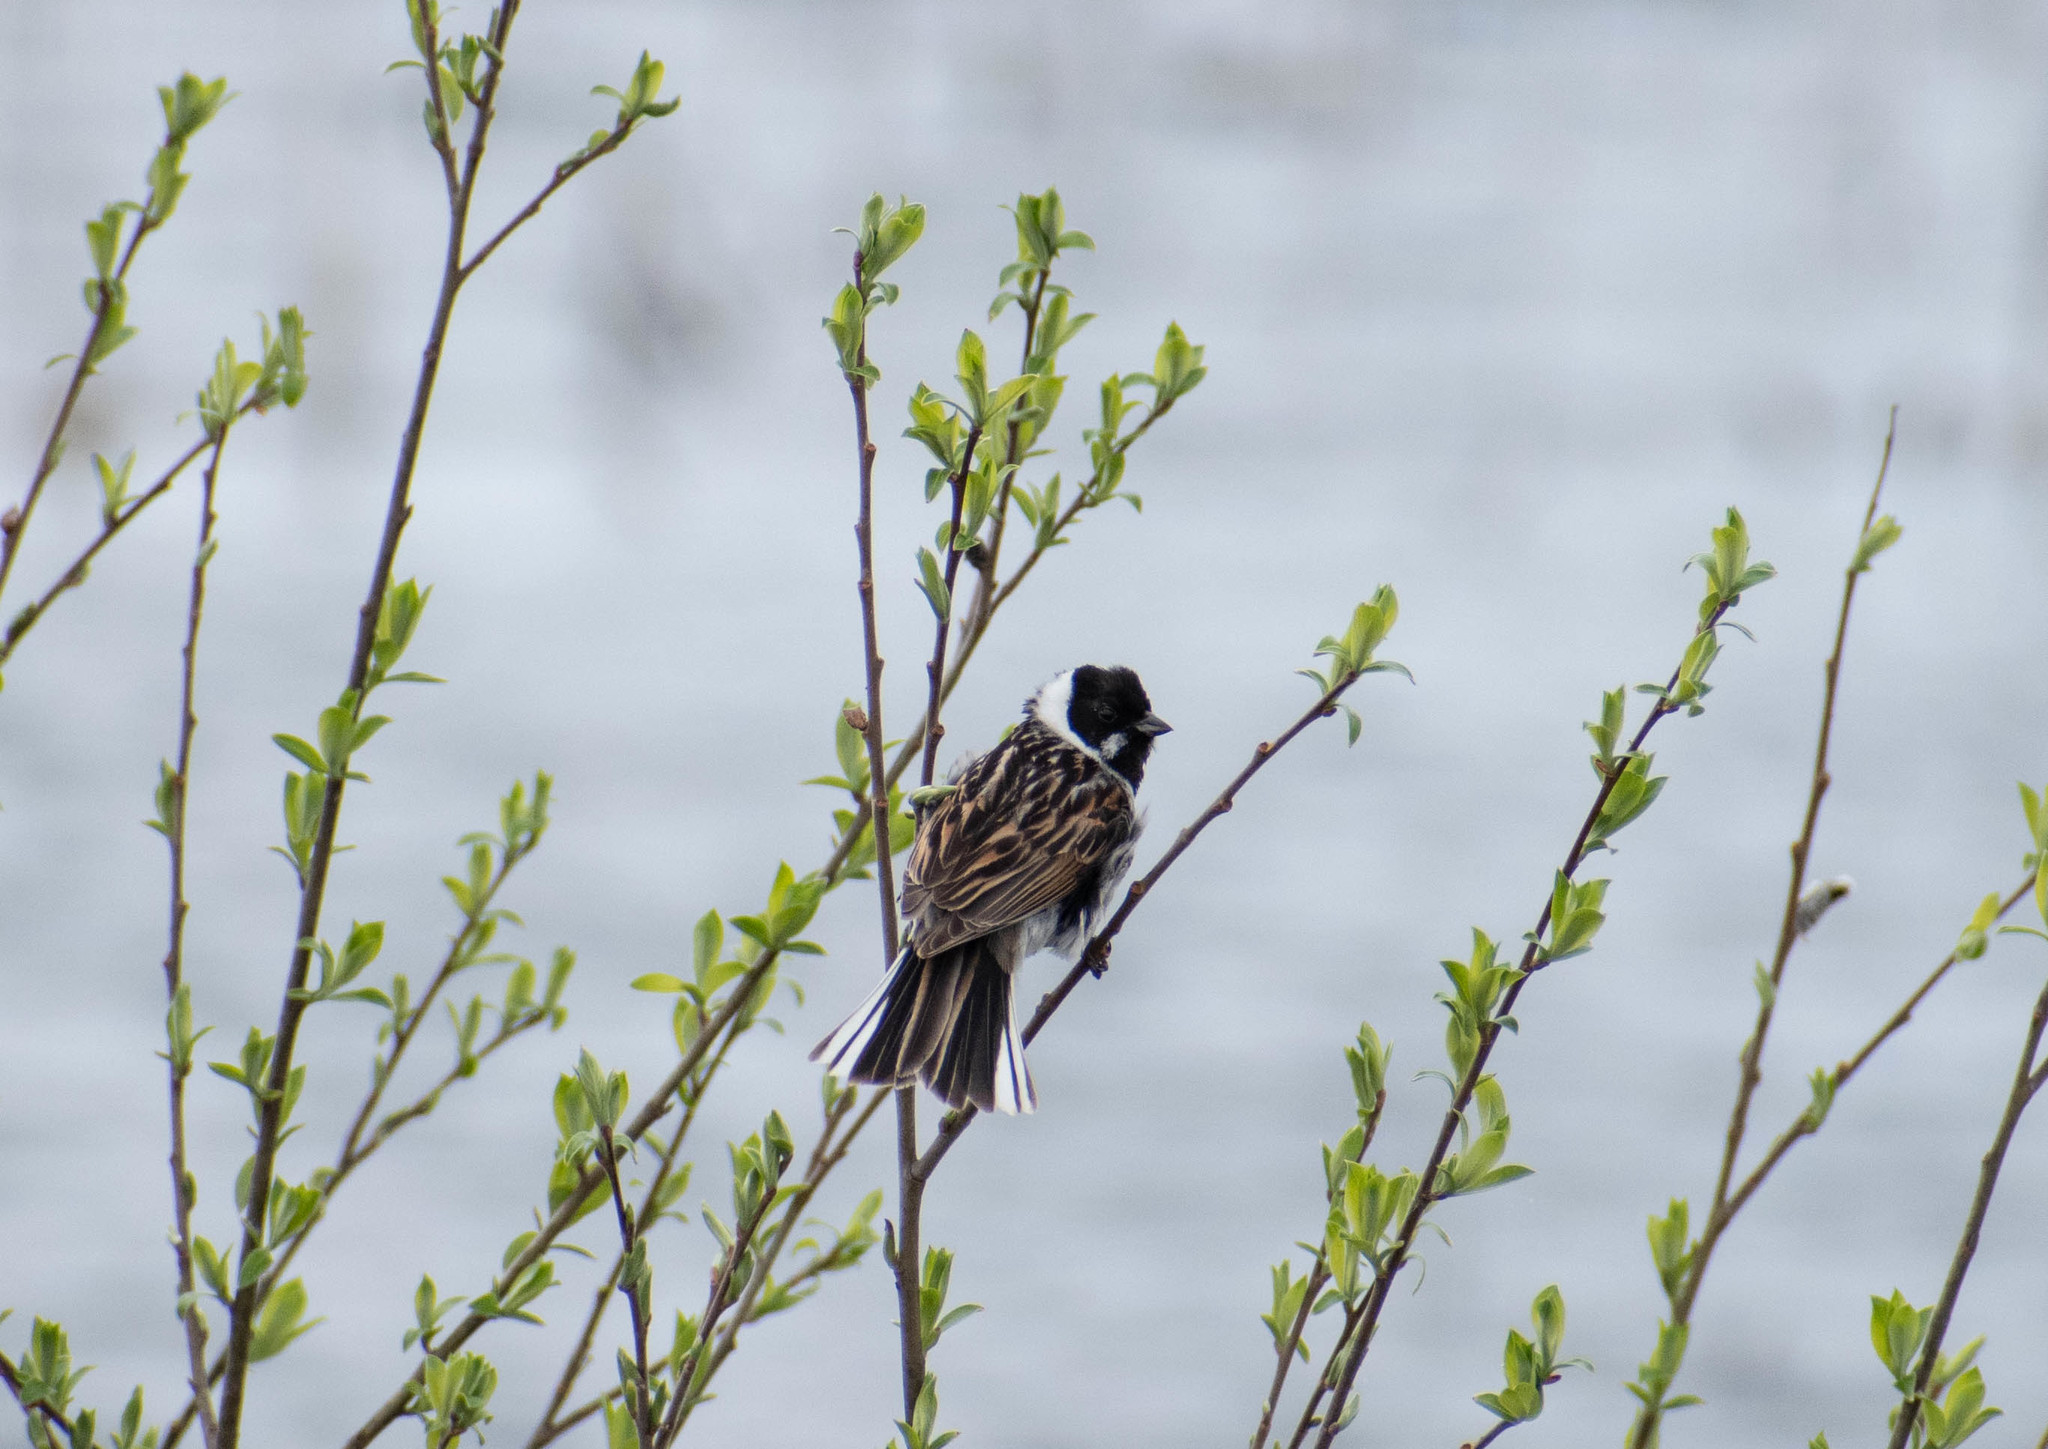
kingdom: Animalia
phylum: Chordata
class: Aves
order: Passeriformes
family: Emberizidae
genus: Emberiza
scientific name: Emberiza schoeniclus
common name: Reed bunting
